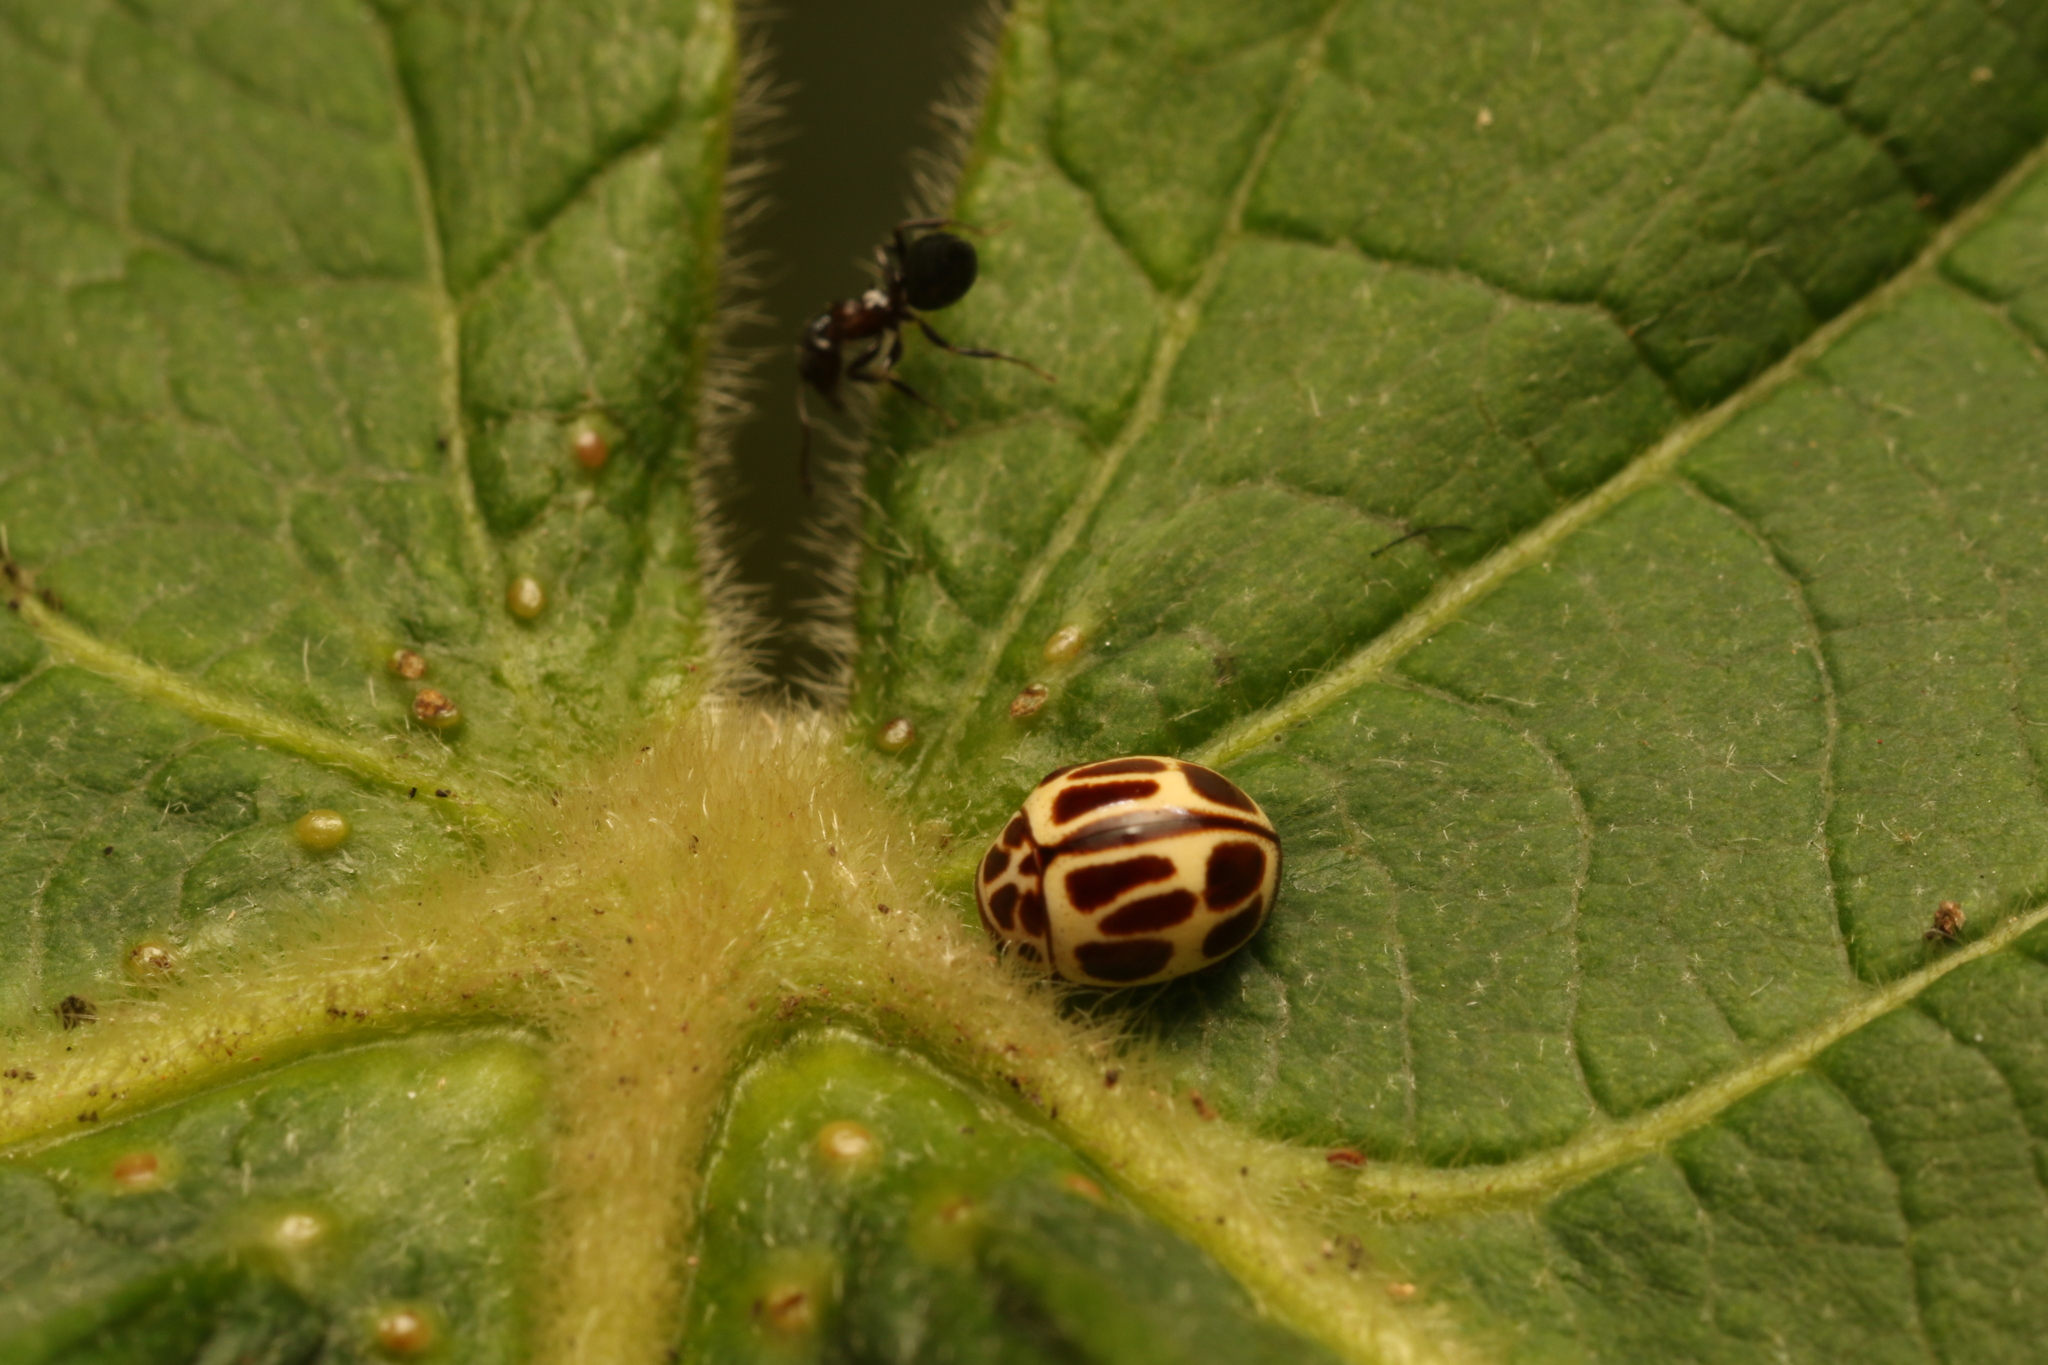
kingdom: Animalia
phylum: Arthropoda
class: Insecta
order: Coleoptera
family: Coccinellidae
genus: Dilatitibialis
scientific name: Dilatitibialis
